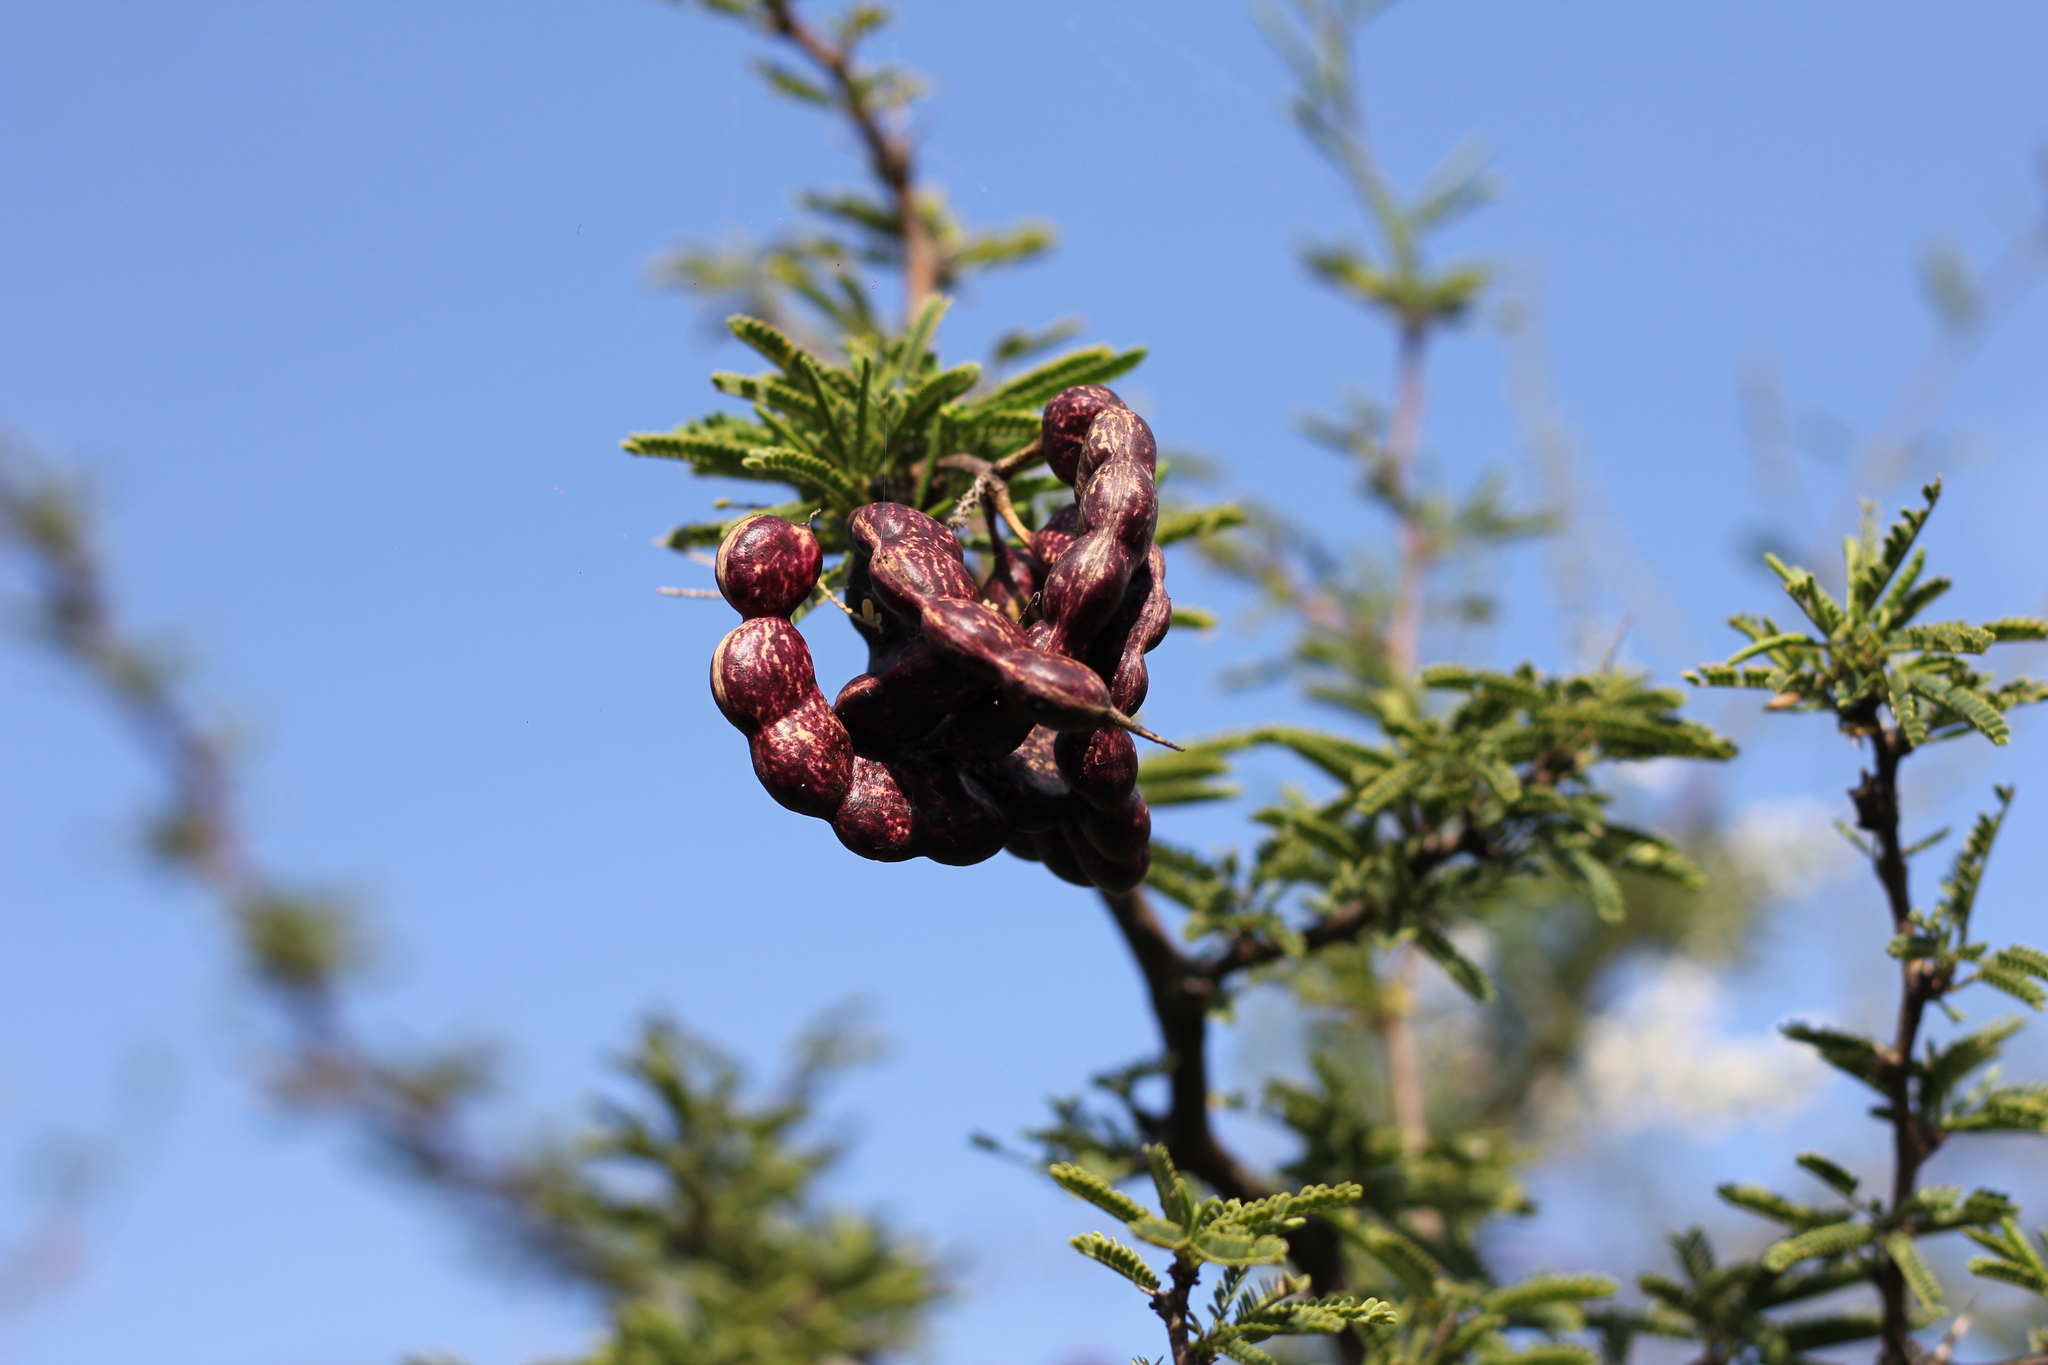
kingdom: Plantae
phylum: Tracheophyta
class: Magnoliopsida
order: Fabales
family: Fabaceae
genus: Prosopis
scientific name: Prosopis affinis
